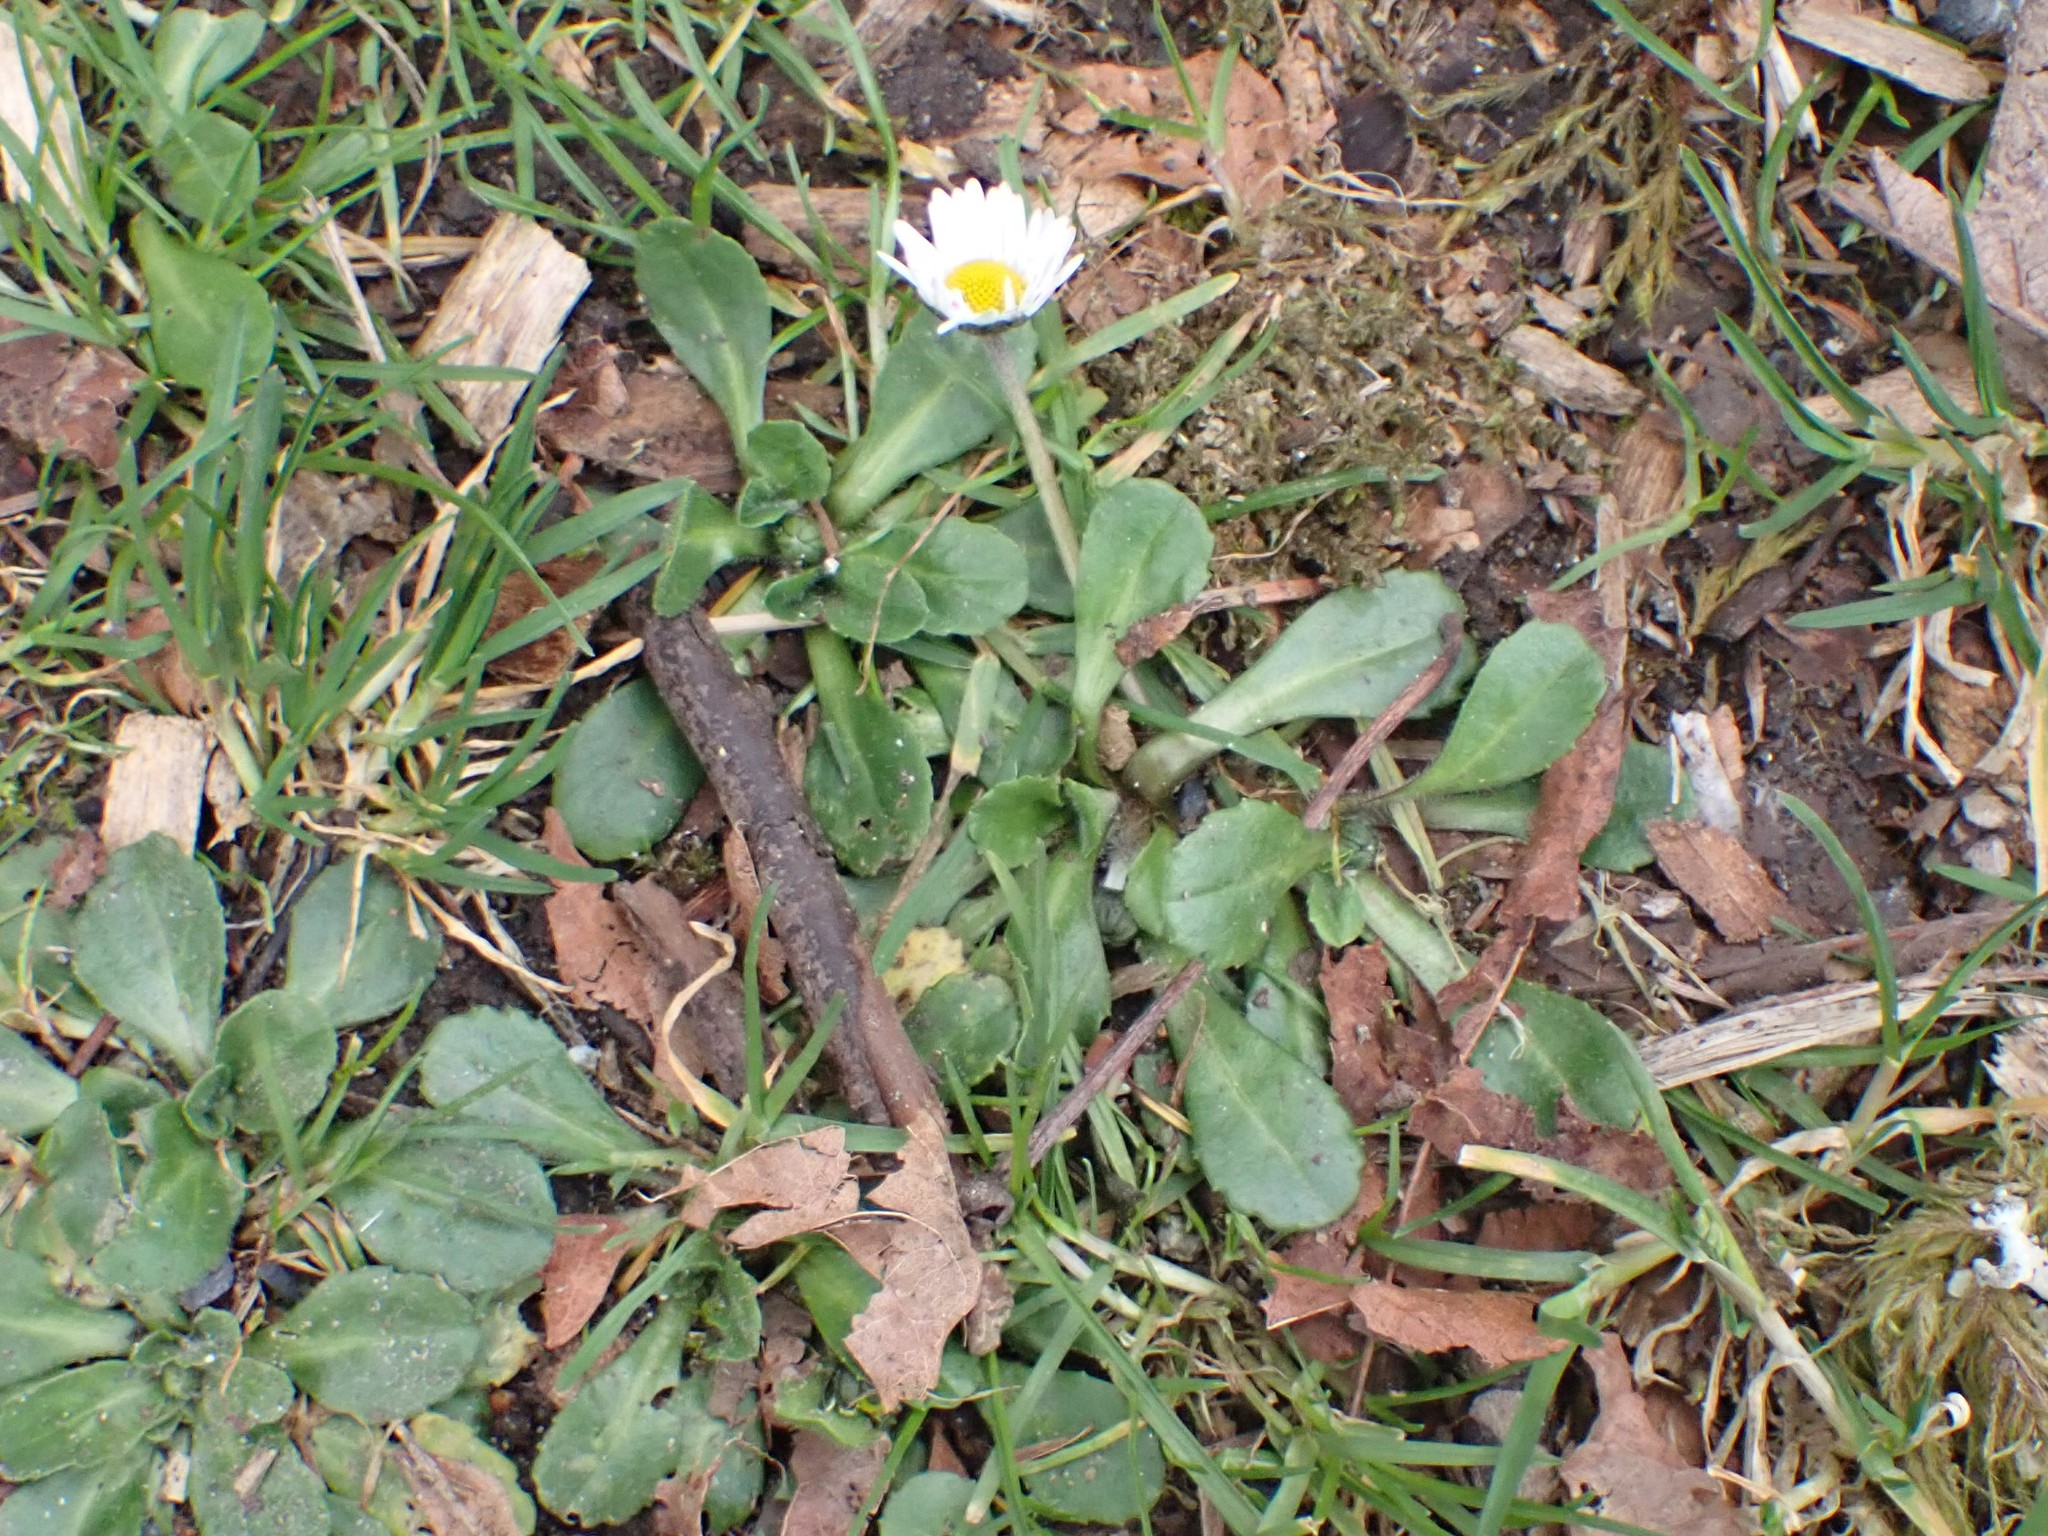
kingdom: Plantae
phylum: Tracheophyta
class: Magnoliopsida
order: Asterales
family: Asteraceae
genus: Bellis
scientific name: Bellis perennis
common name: Lawndaisy
